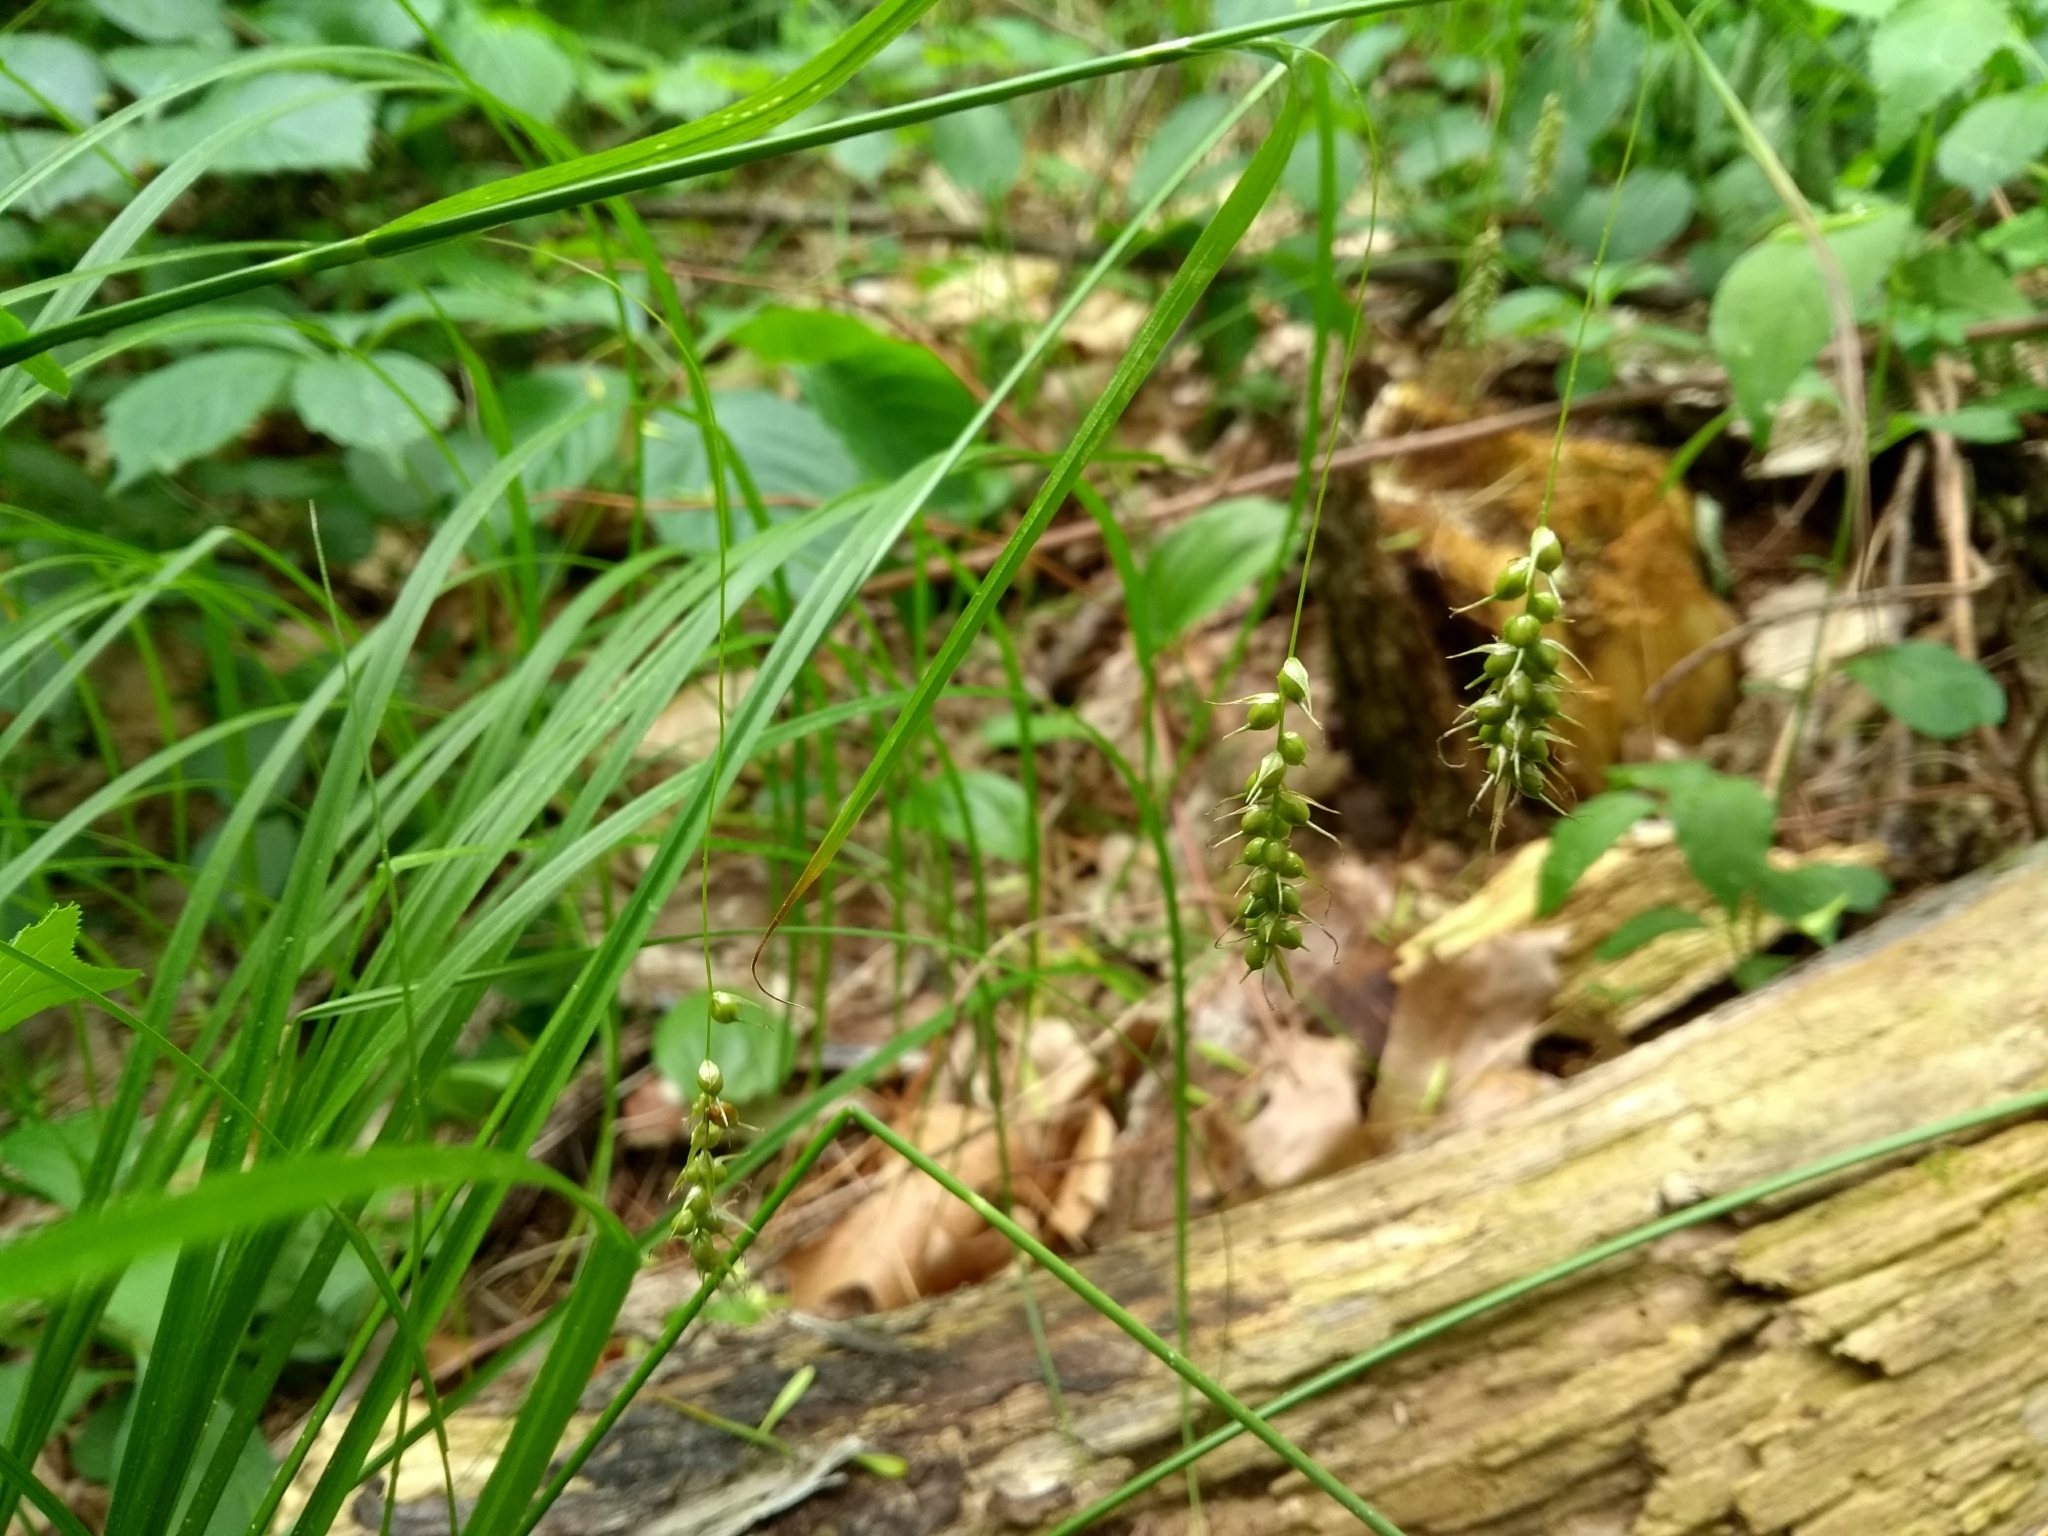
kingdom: Plantae
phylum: Tracheophyta
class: Liliopsida
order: Poales
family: Cyperaceae
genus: Carex
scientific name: Carex sprengelii
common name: Long-beaked sedge
